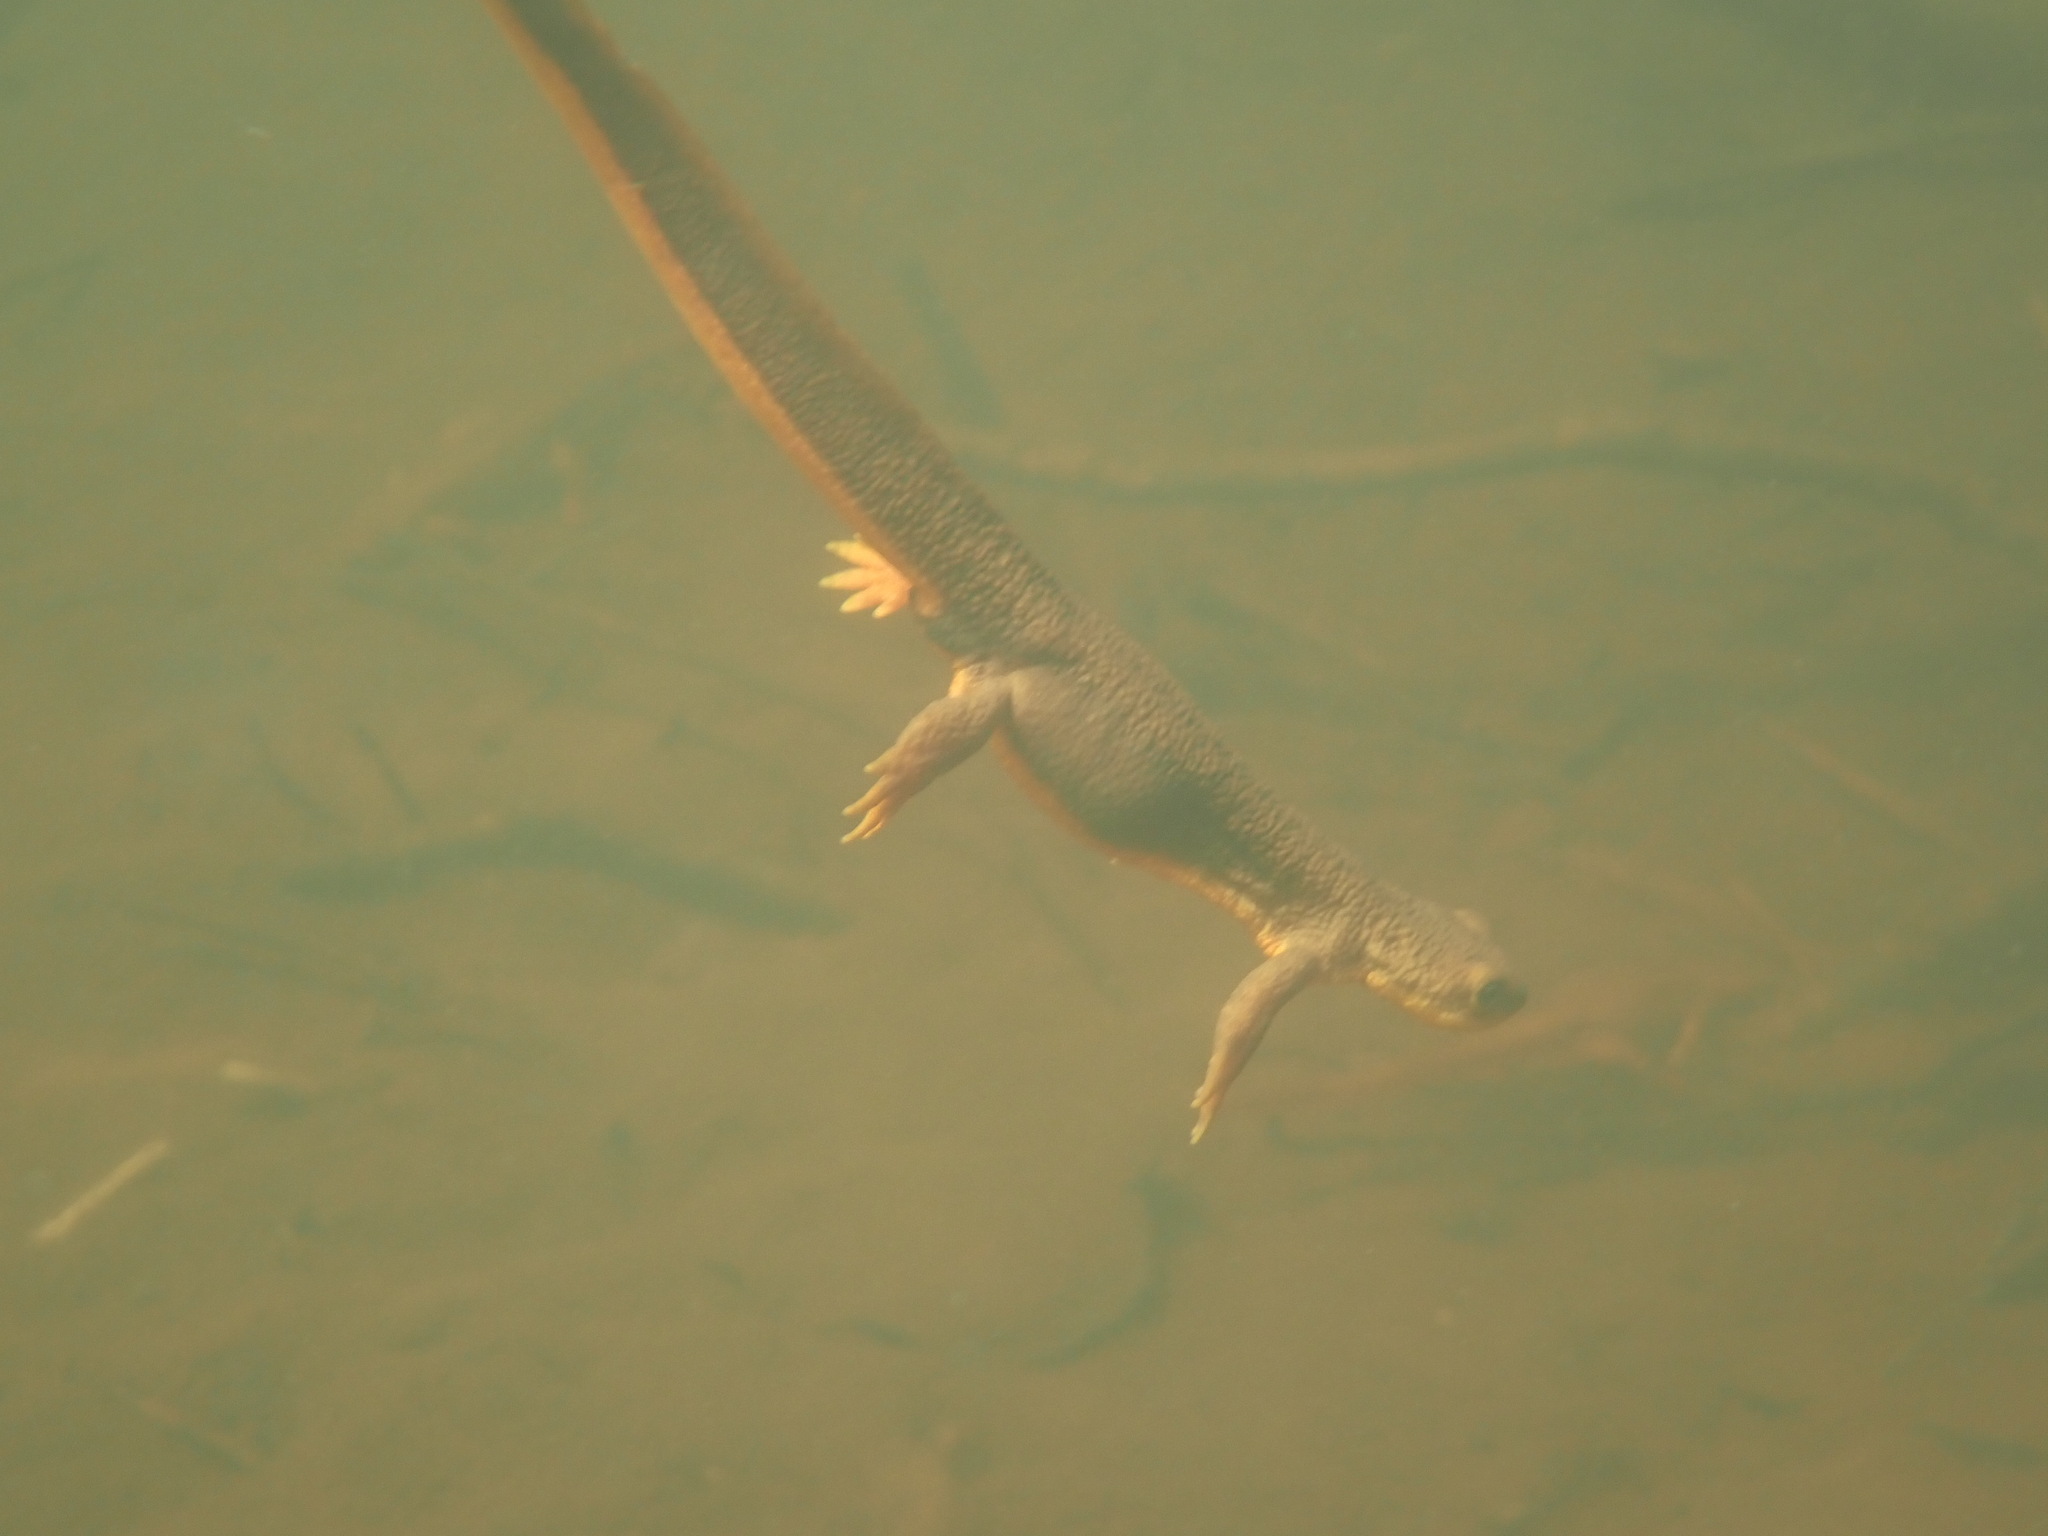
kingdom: Animalia
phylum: Chordata
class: Amphibia
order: Caudata
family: Salamandridae
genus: Taricha
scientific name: Taricha granulosa
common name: Roughskin newt
